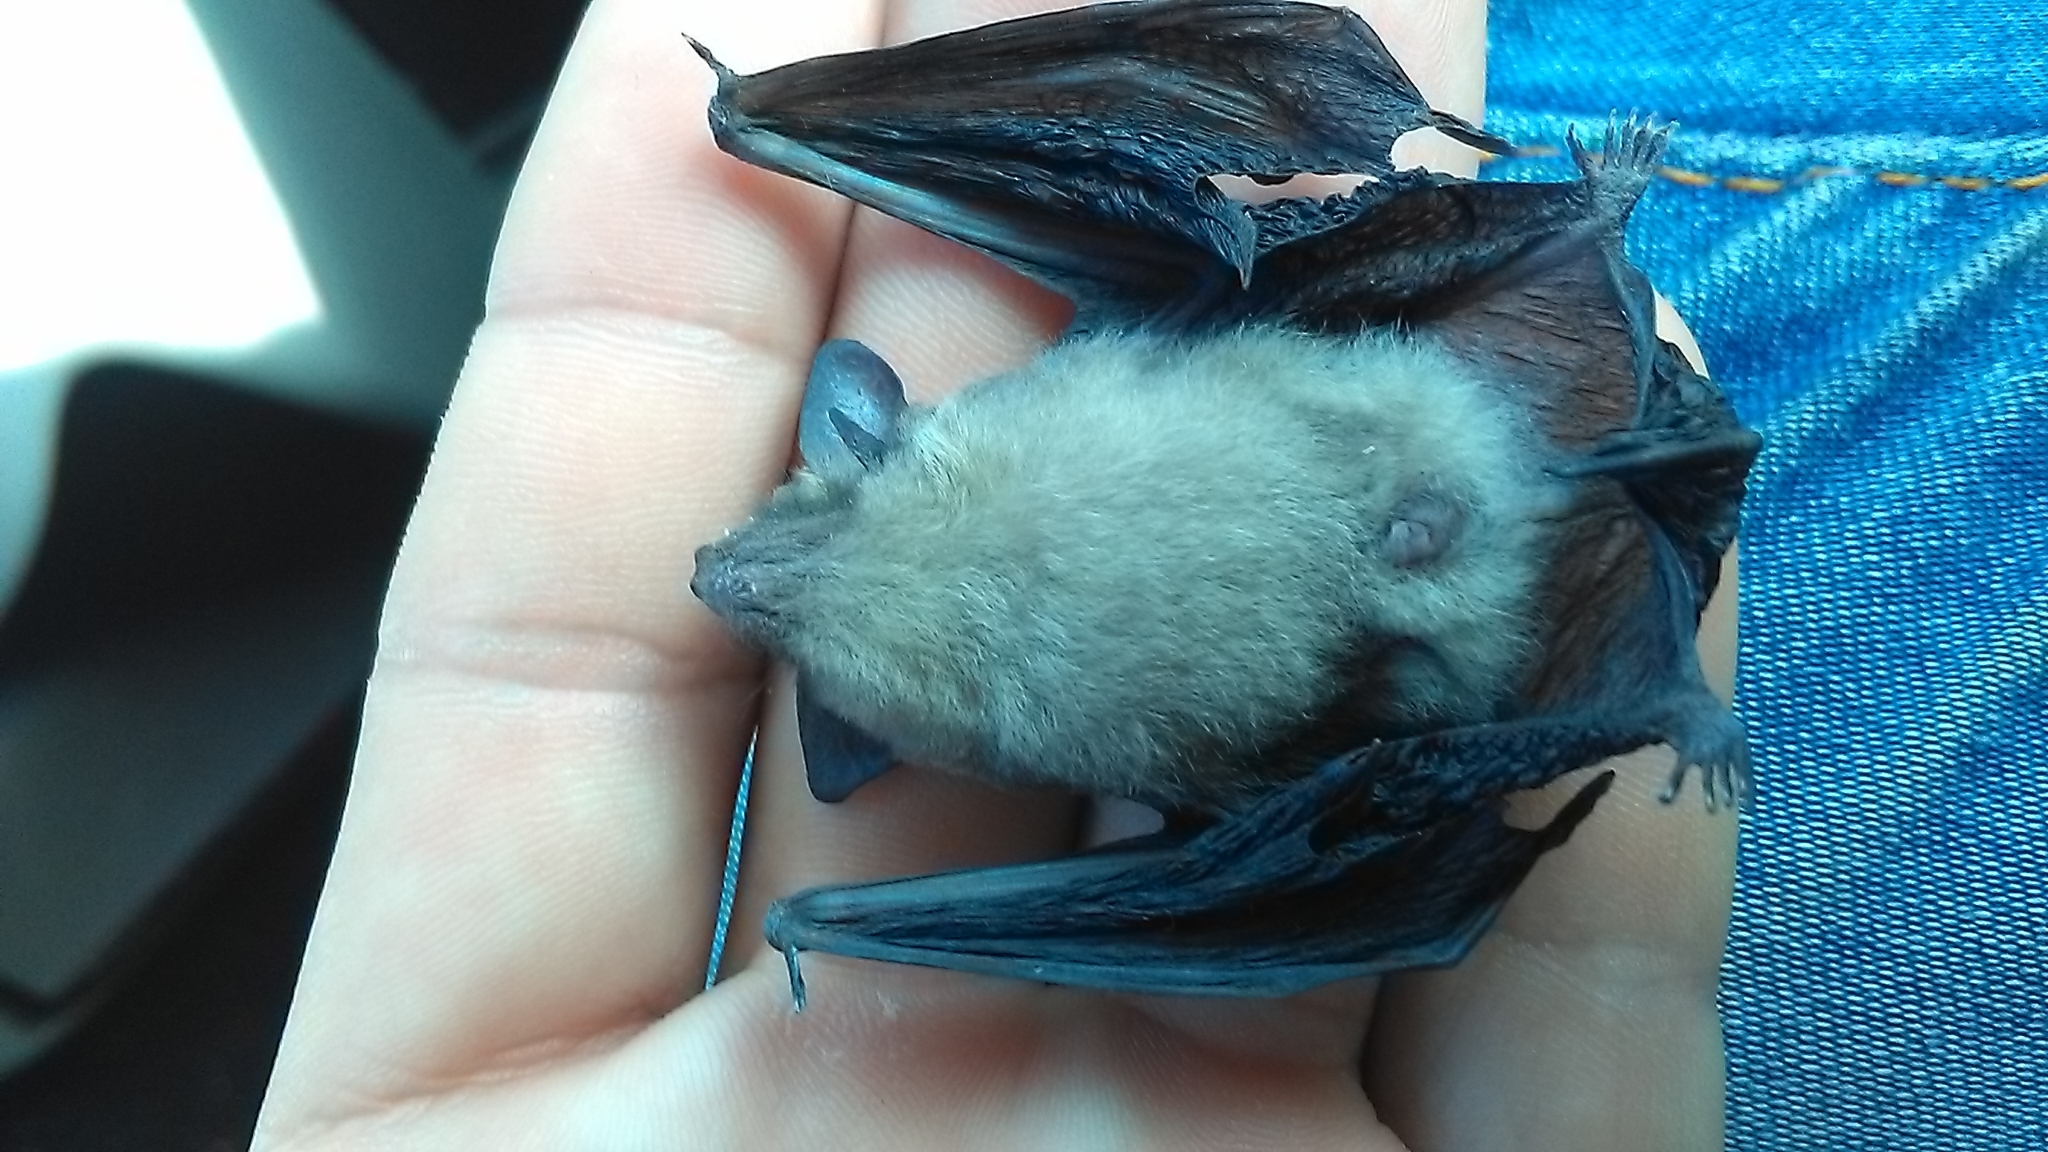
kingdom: Animalia
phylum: Chordata
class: Mammalia
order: Chiroptera
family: Vespertilionidae
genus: Rhogeessa
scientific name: Rhogeessa aenea
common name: Yucatan yellow bat
